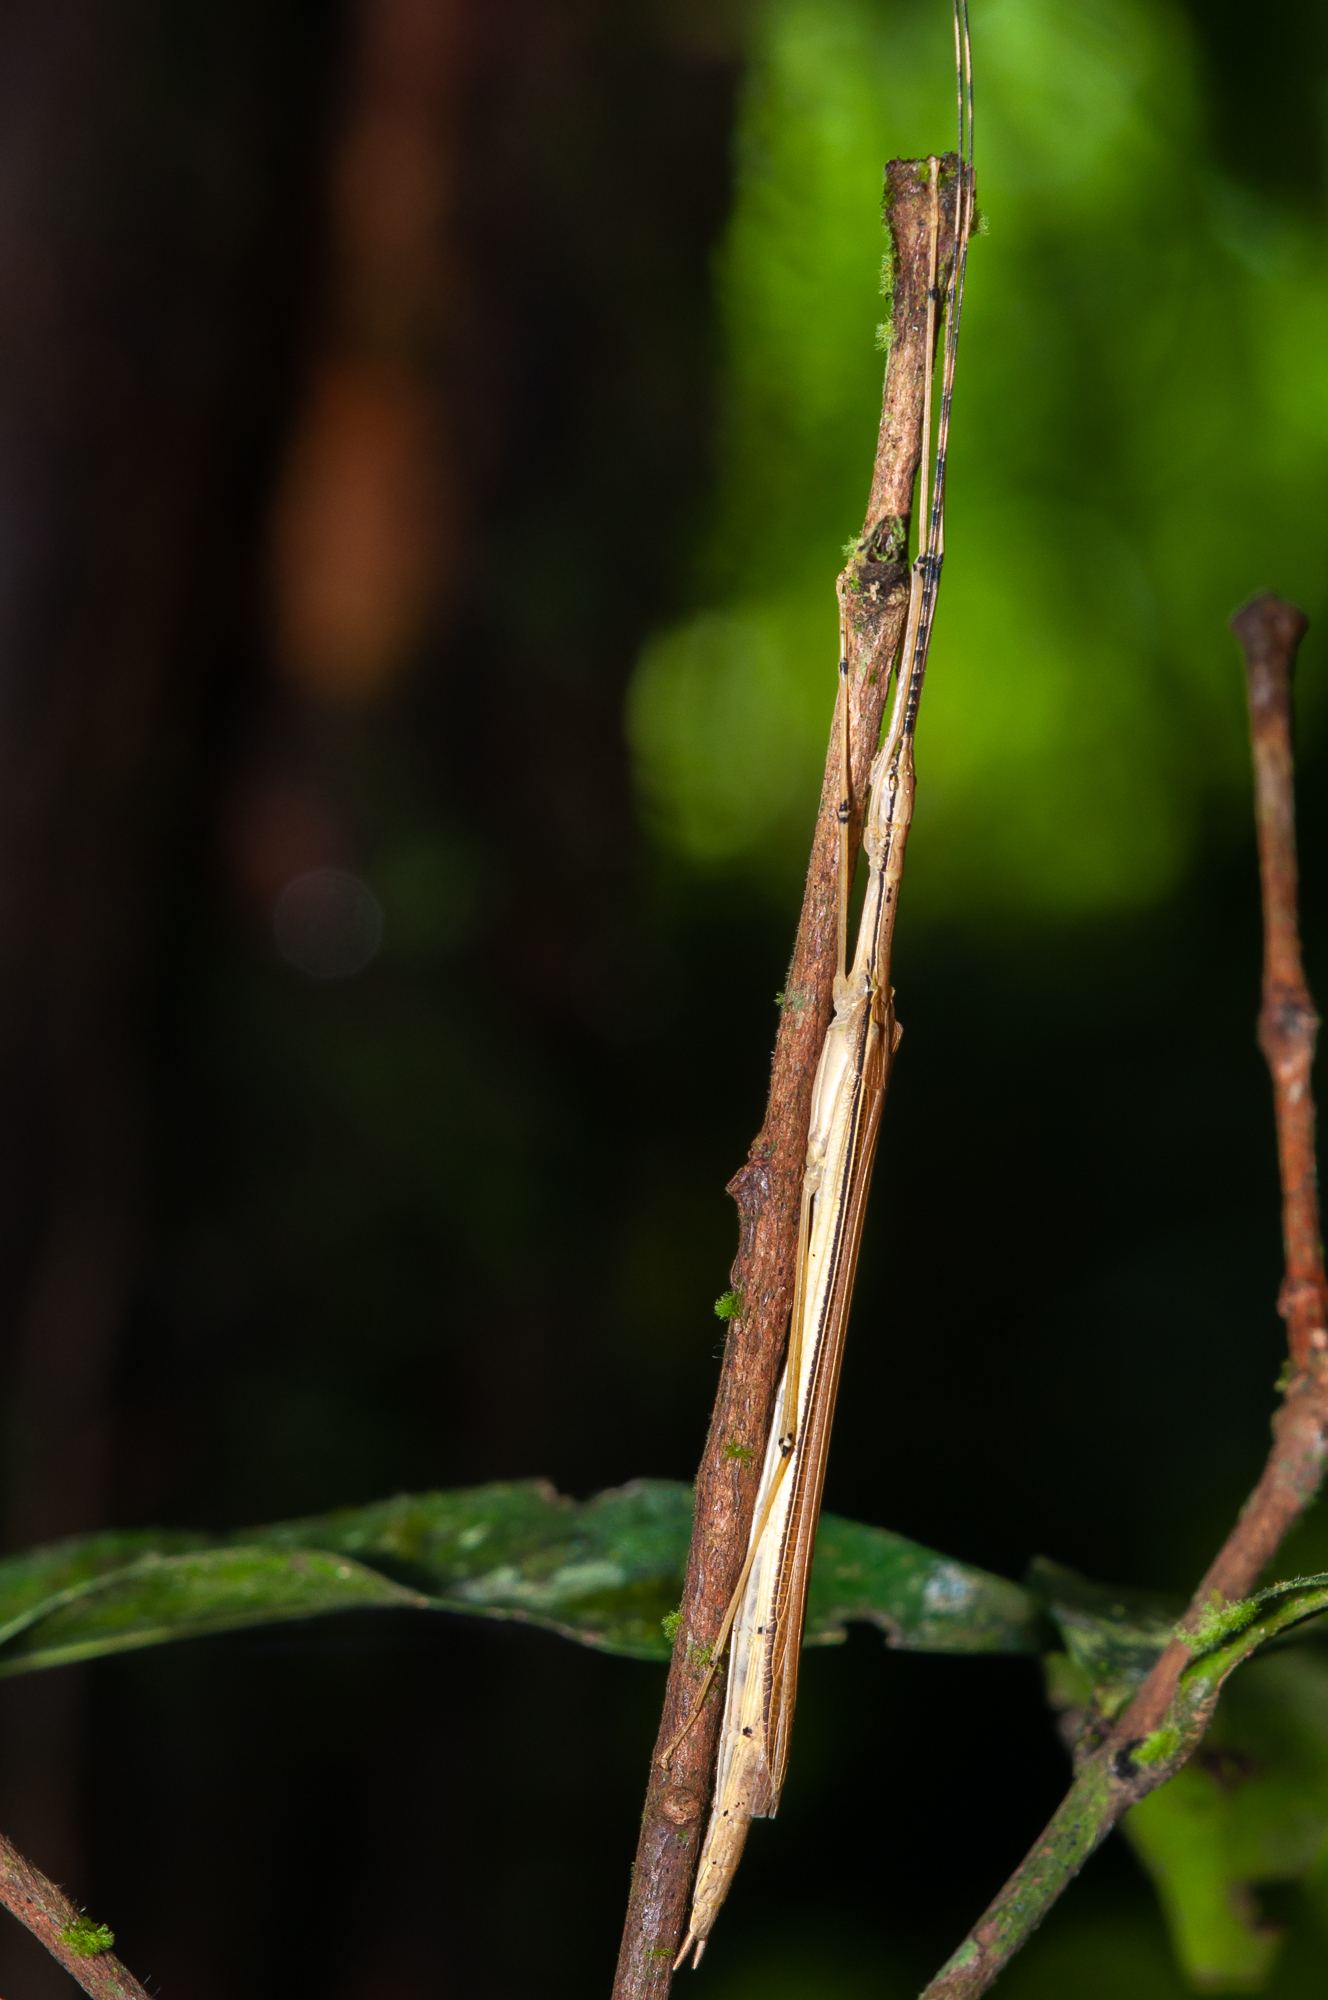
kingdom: Animalia
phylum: Arthropoda
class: Insecta
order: Phasmida
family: Pseudophasmatidae
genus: Pseudophasma
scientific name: Pseudophasma phaeton
